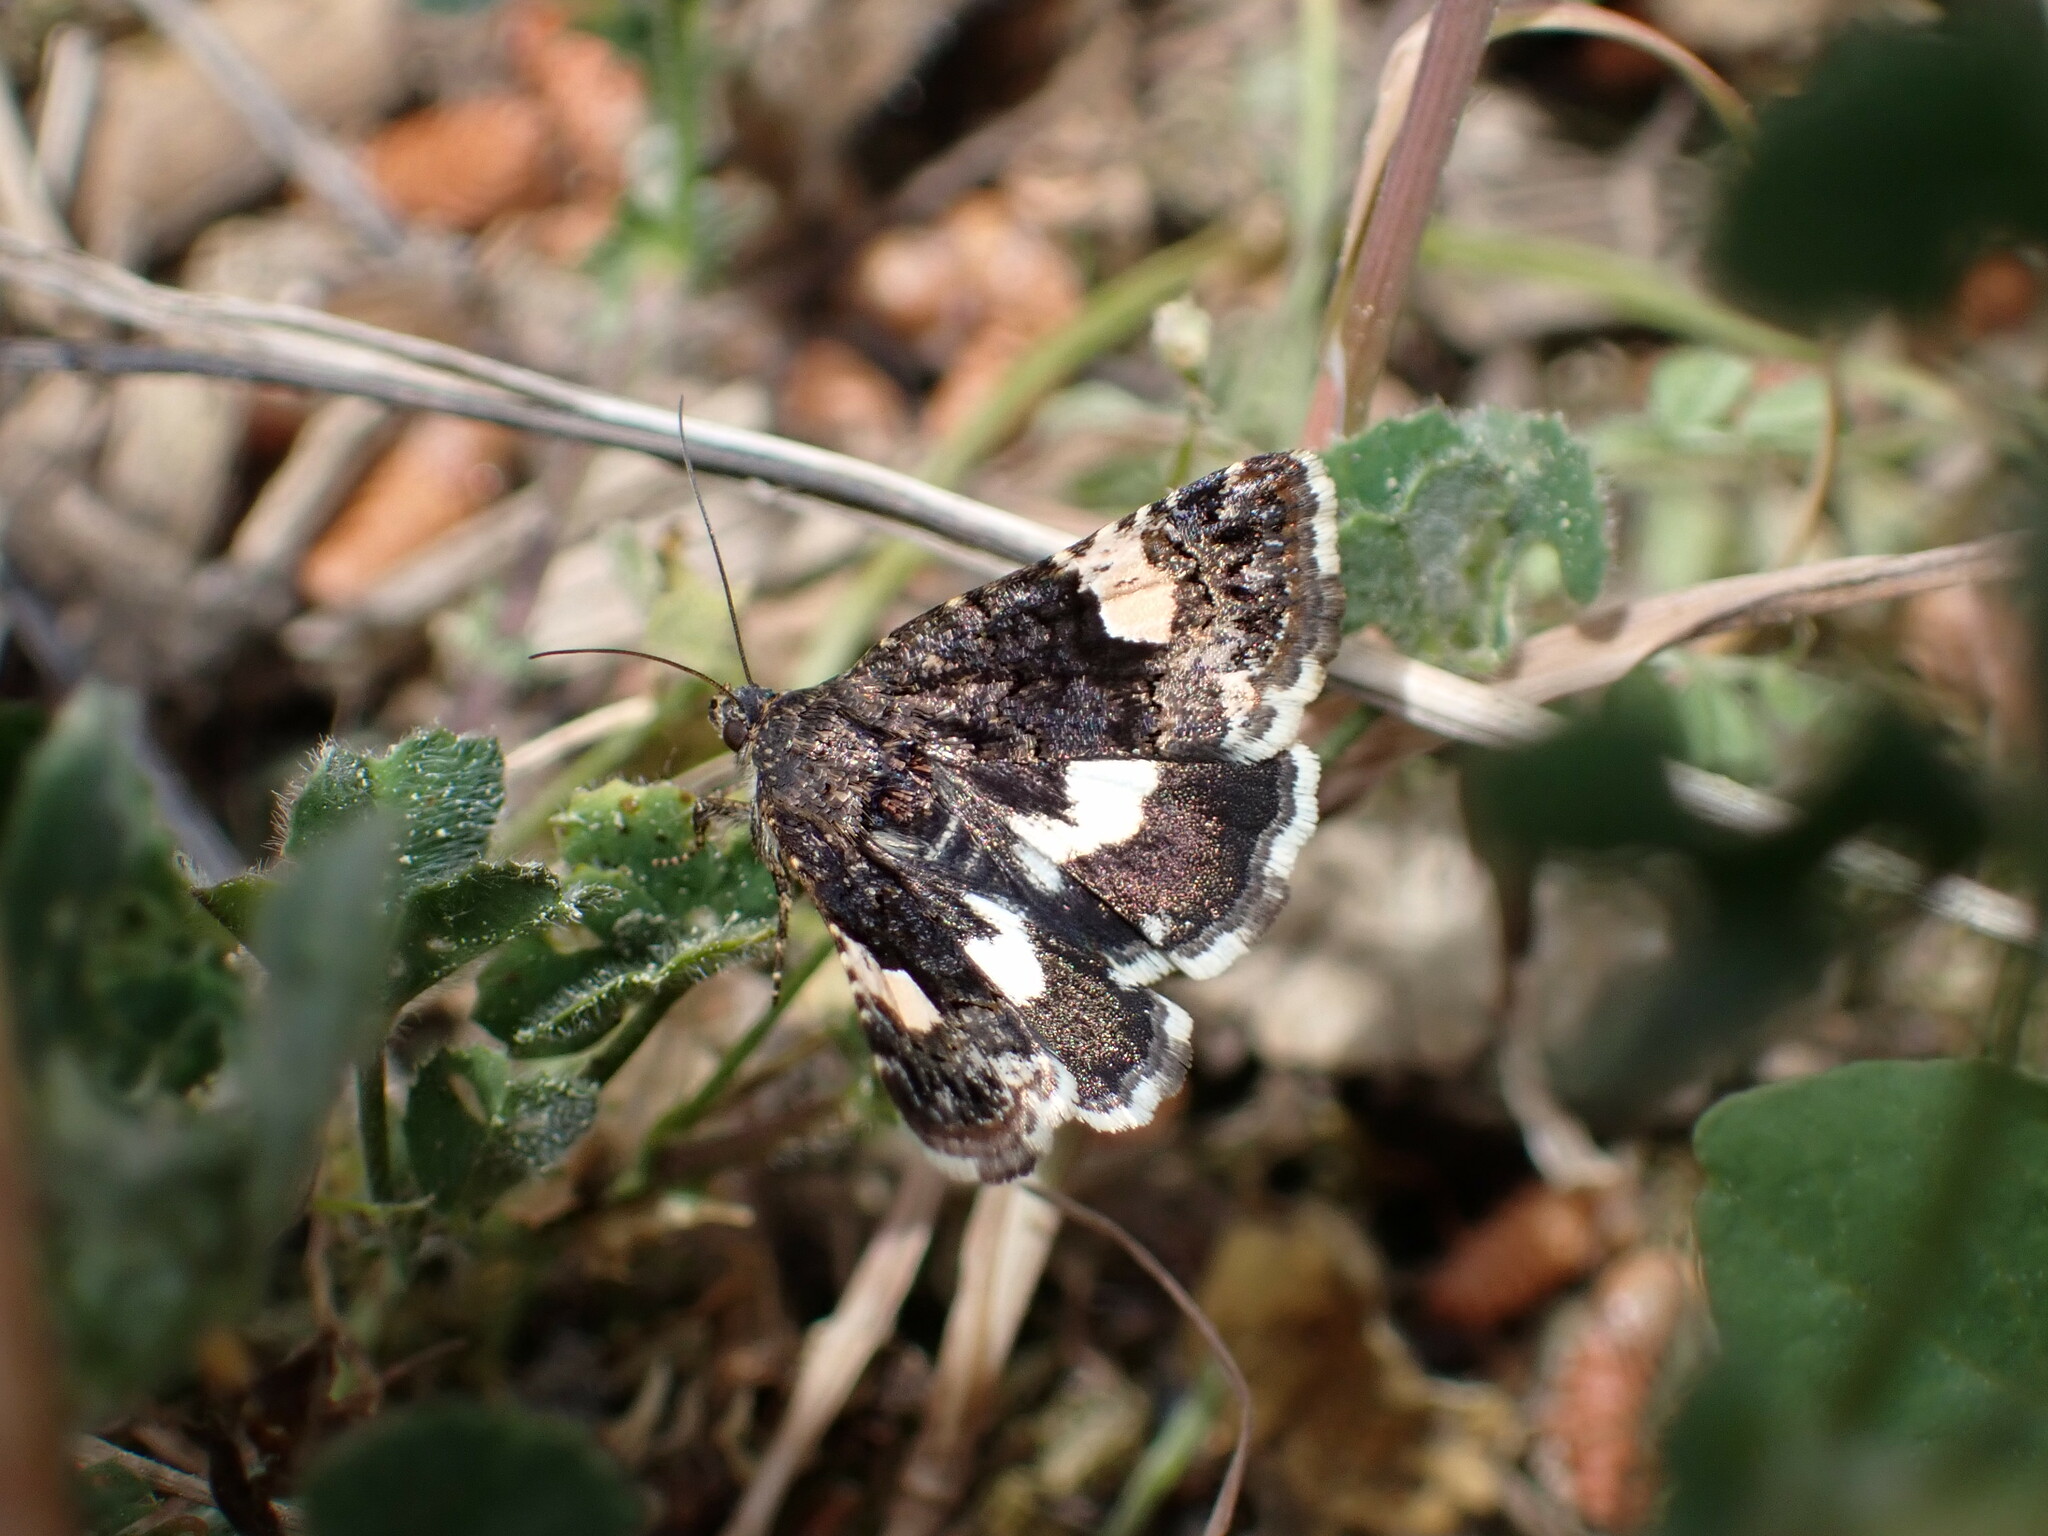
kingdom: Animalia
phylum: Arthropoda
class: Insecta
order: Lepidoptera
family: Erebidae
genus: Tyta
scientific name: Tyta luctuosa
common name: Four-spotted
